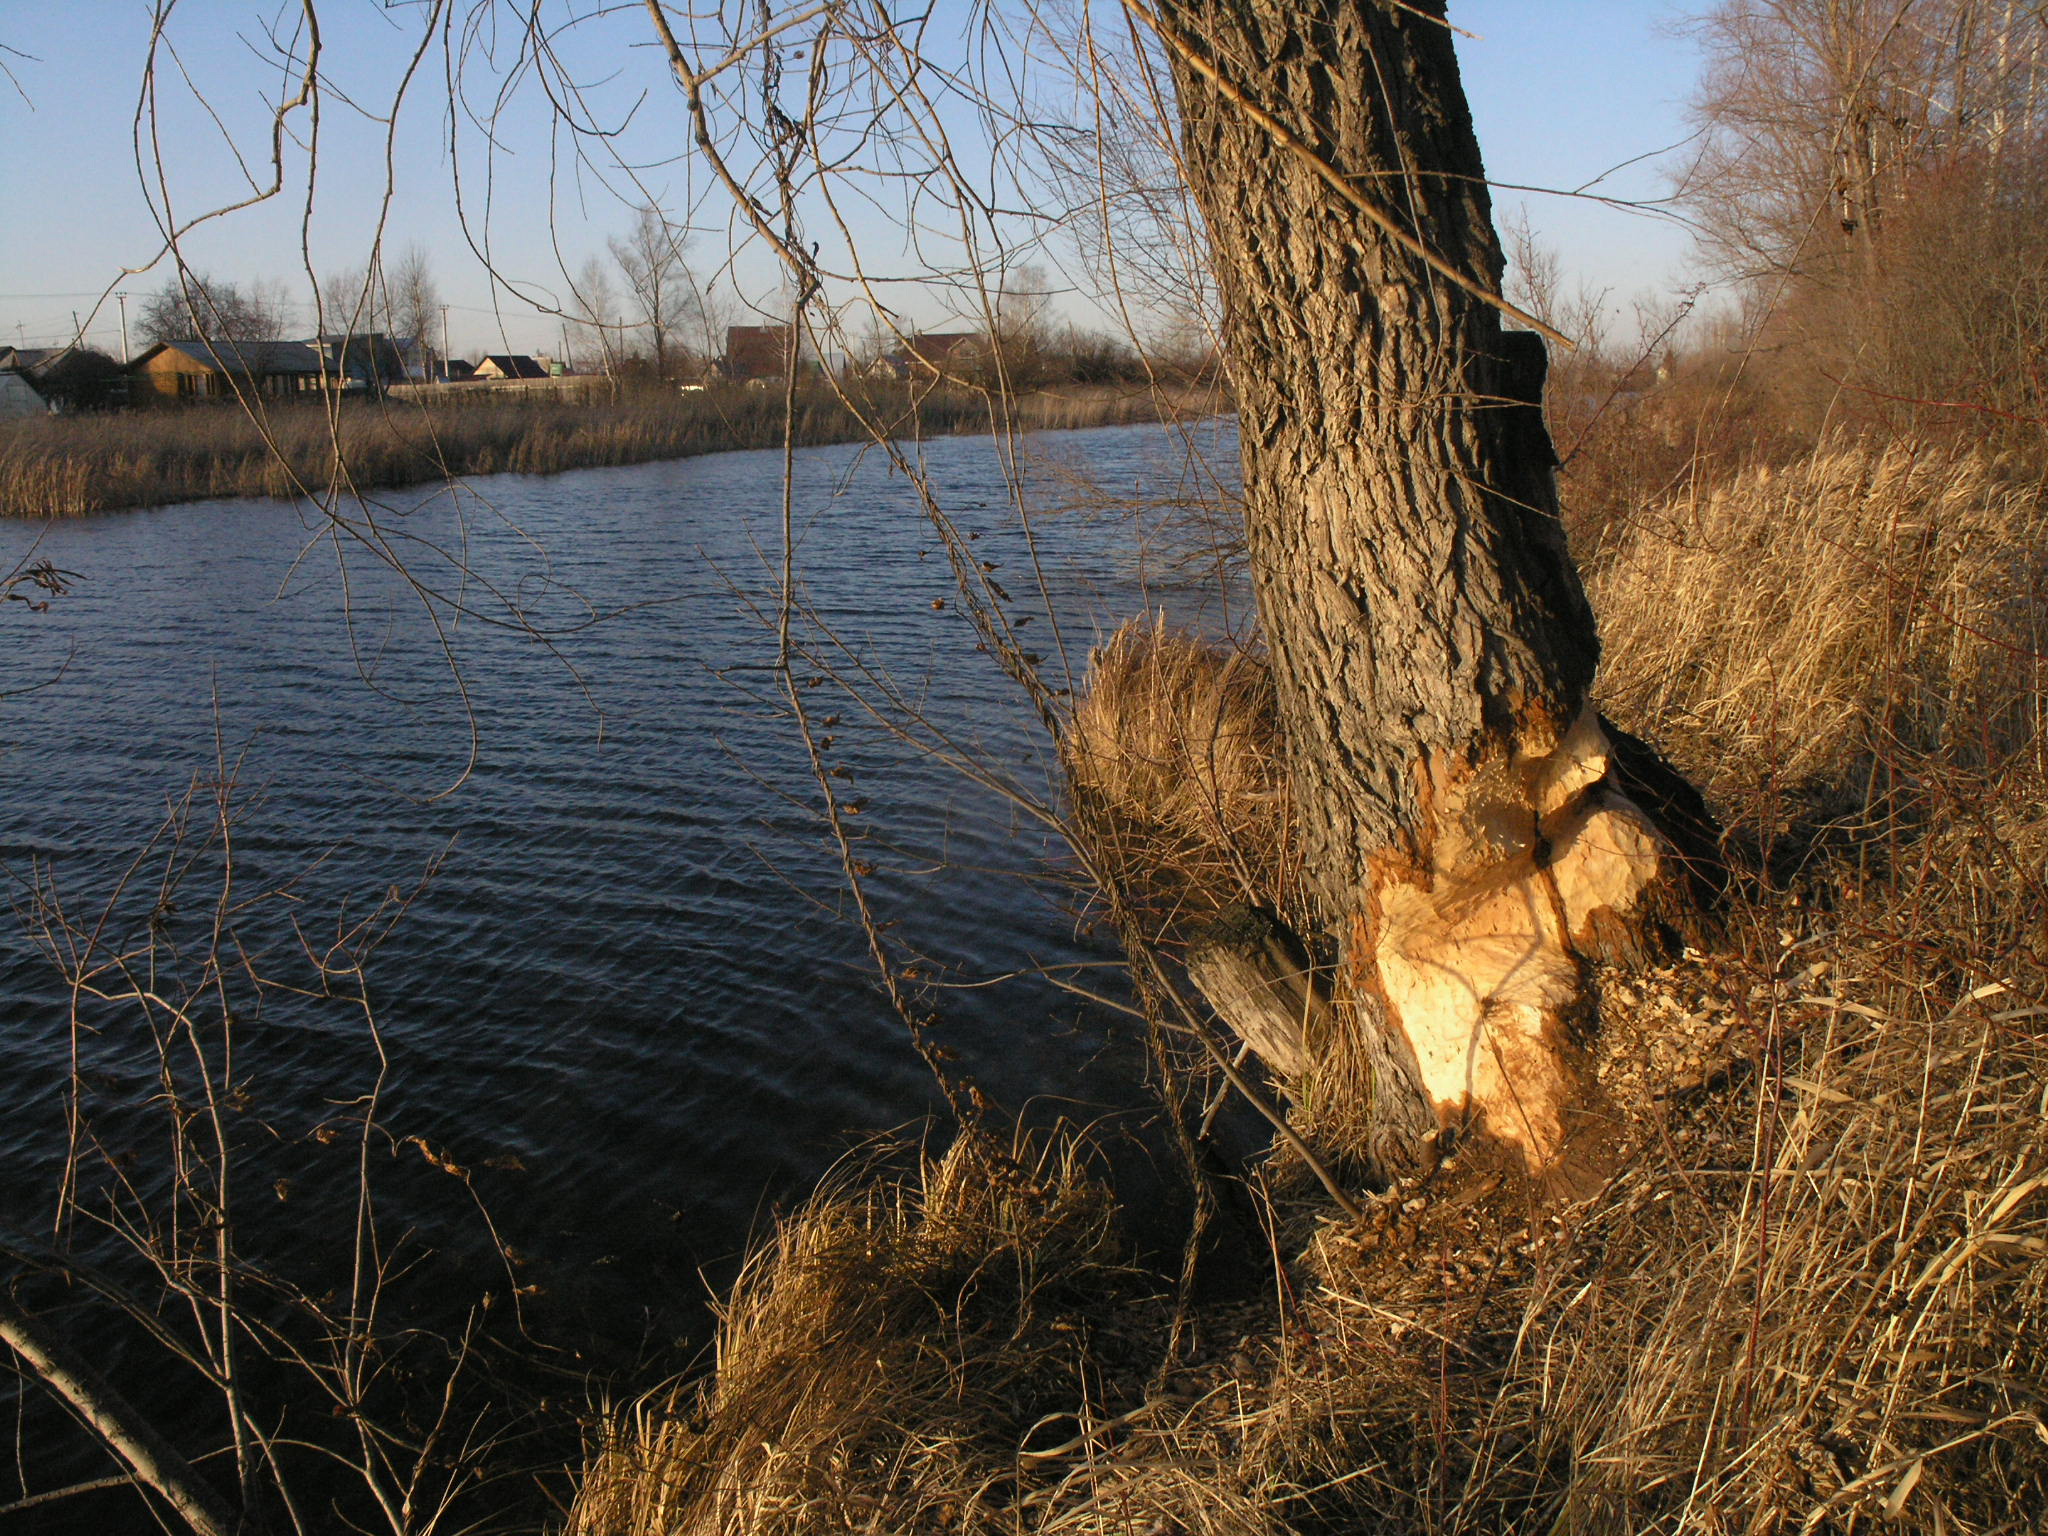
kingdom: Animalia
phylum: Chordata
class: Mammalia
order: Rodentia
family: Castoridae
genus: Castor
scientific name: Castor fiber
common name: Eurasian beaver
